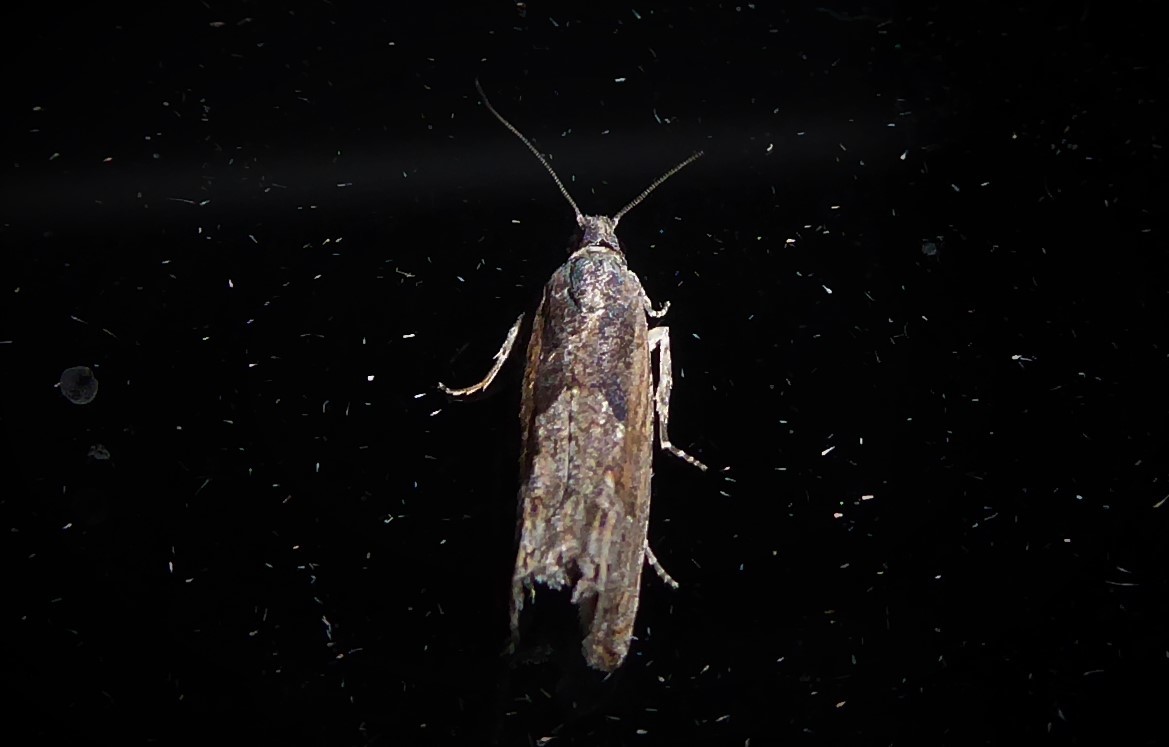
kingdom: Animalia
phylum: Arthropoda
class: Insecta
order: Lepidoptera
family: Tortricidae
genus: Strepsicrates
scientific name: Strepsicrates infensa
